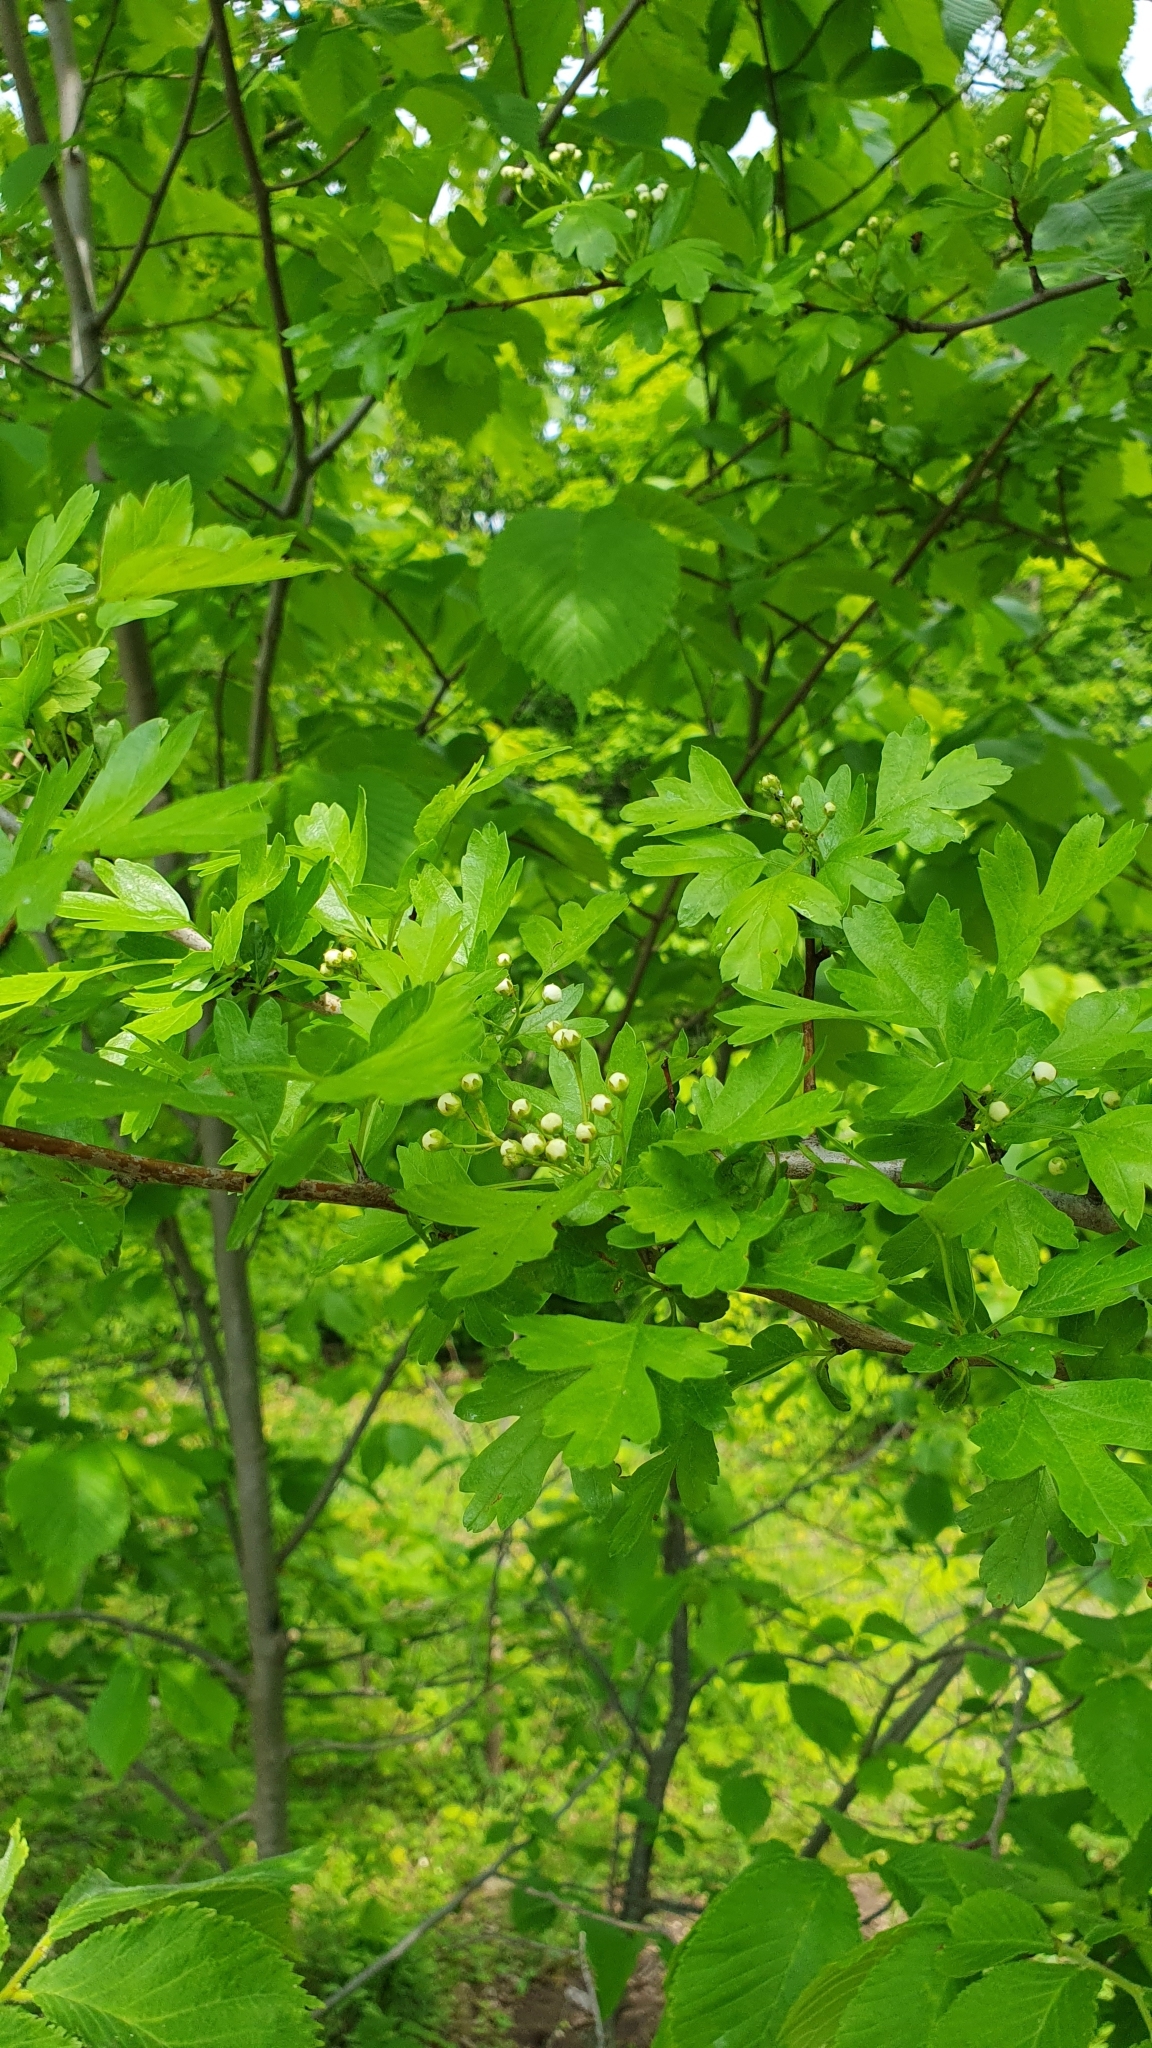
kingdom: Plantae
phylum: Tracheophyta
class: Magnoliopsida
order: Rosales
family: Rosaceae
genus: Crataegus
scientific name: Crataegus monogyna
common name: Hawthorn
